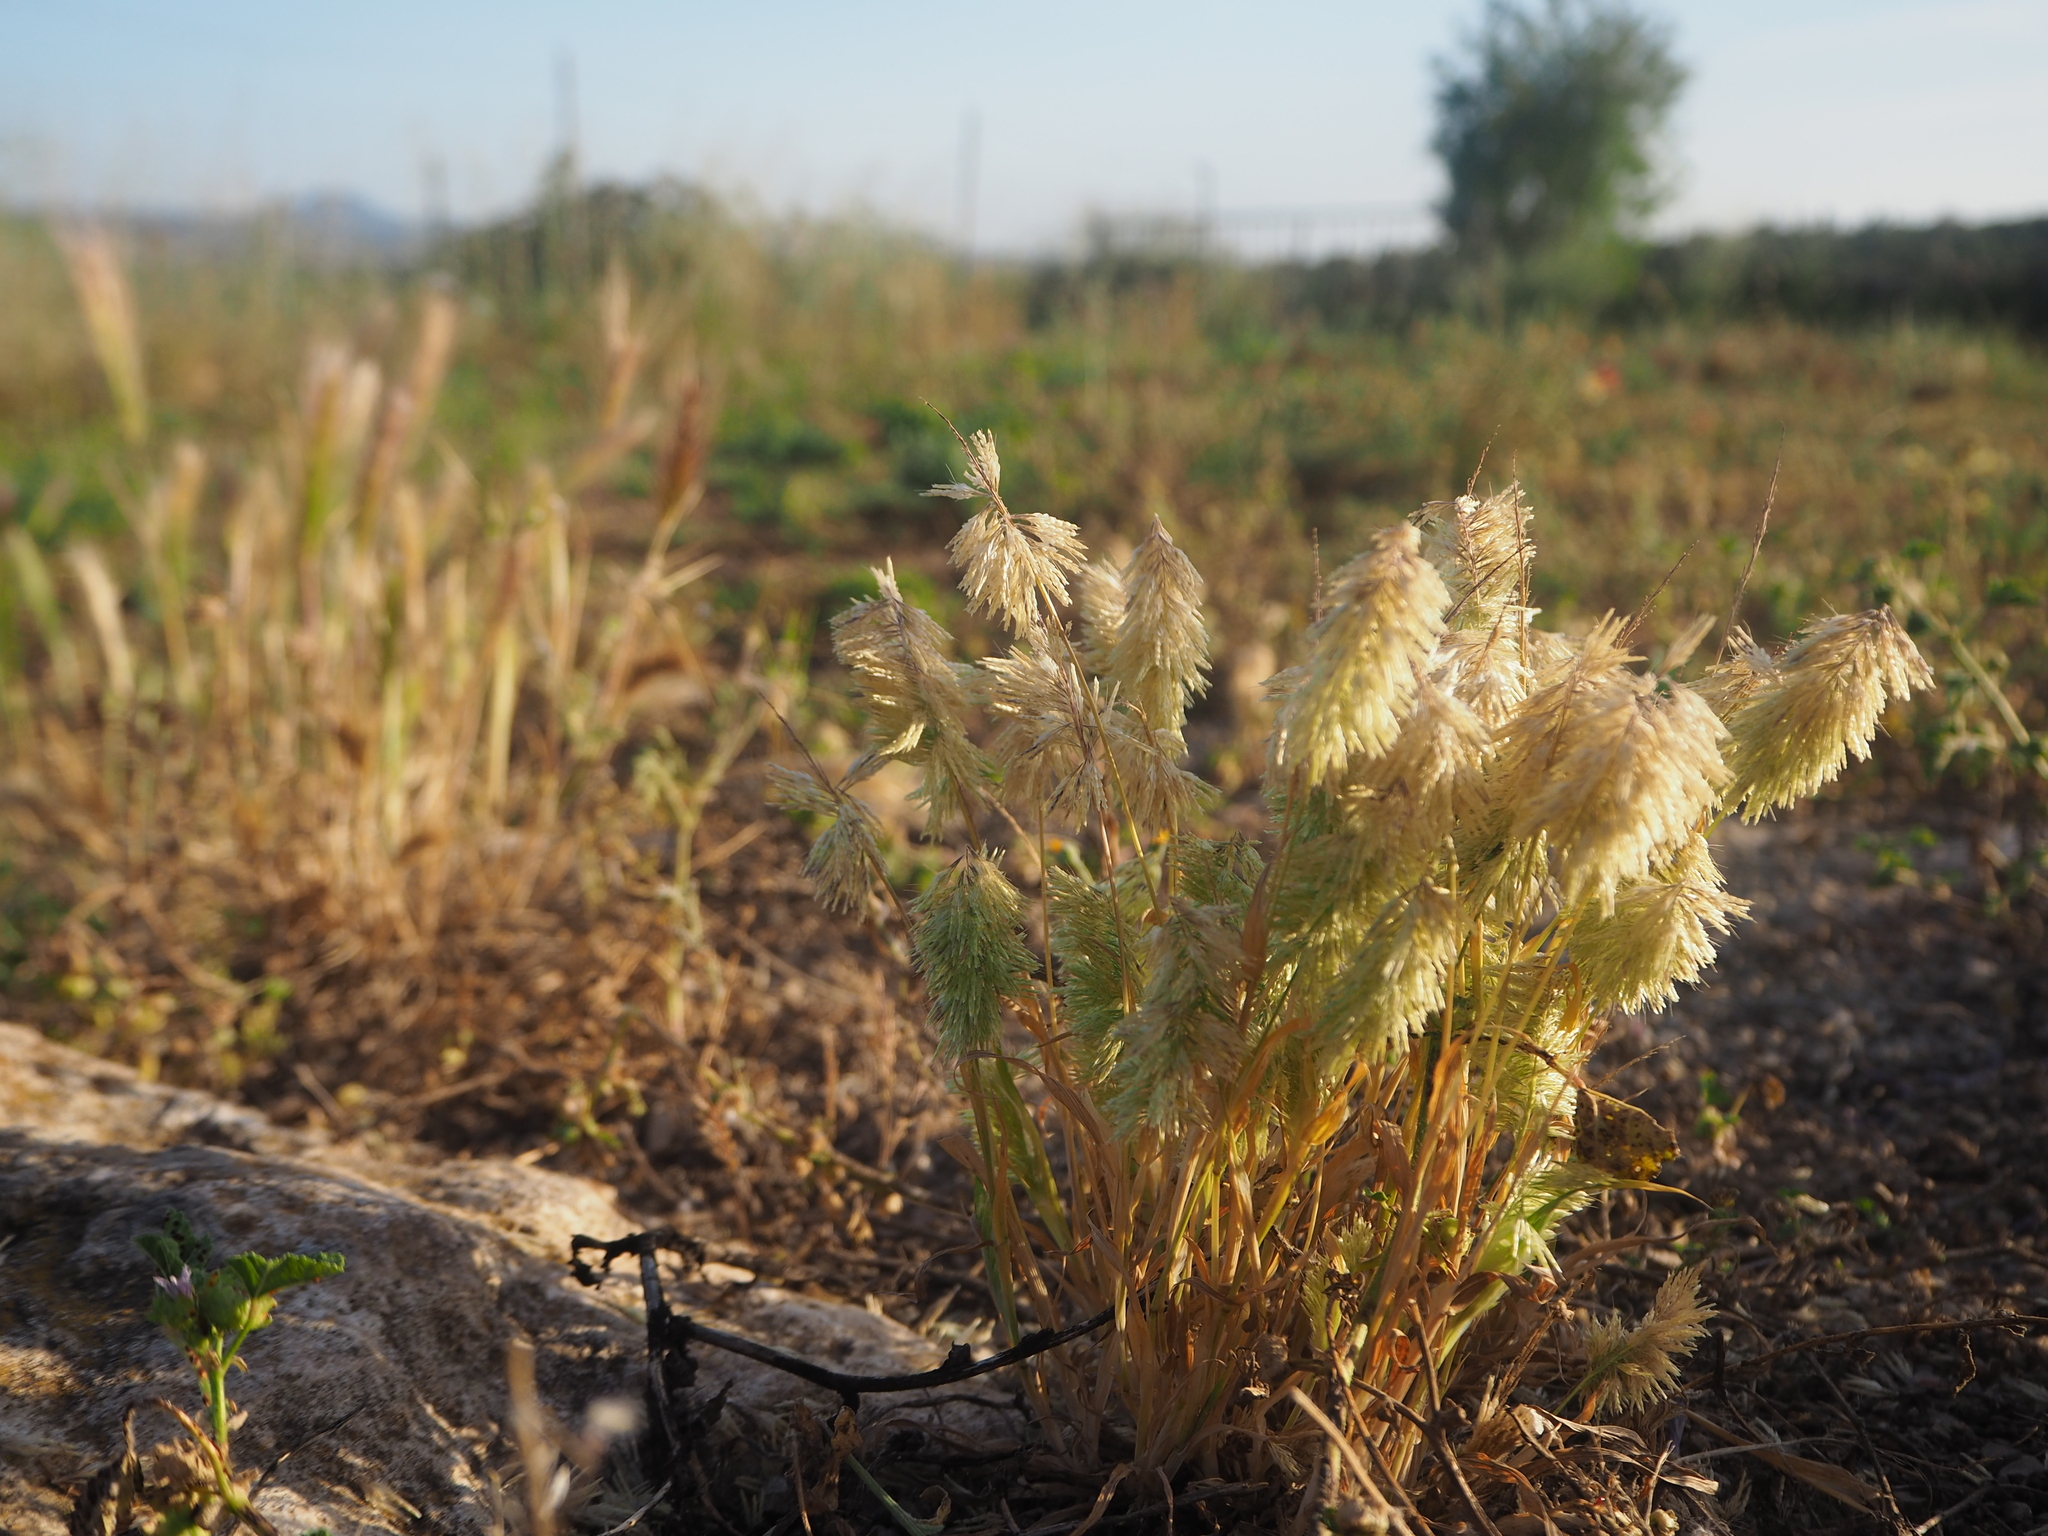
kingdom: Plantae
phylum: Tracheophyta
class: Liliopsida
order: Poales
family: Poaceae
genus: Lamarckia
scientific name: Lamarckia aurea
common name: Golden dog's-tail
